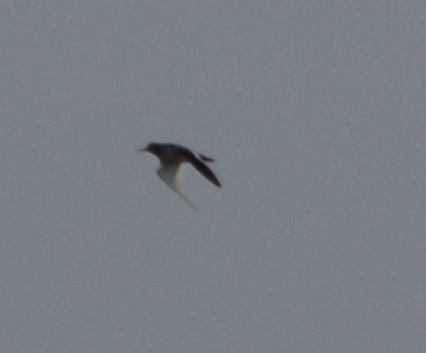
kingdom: Animalia
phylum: Chordata
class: Aves
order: Charadriiformes
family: Scolopacidae
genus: Tringa
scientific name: Tringa totanus
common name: Common redshank
